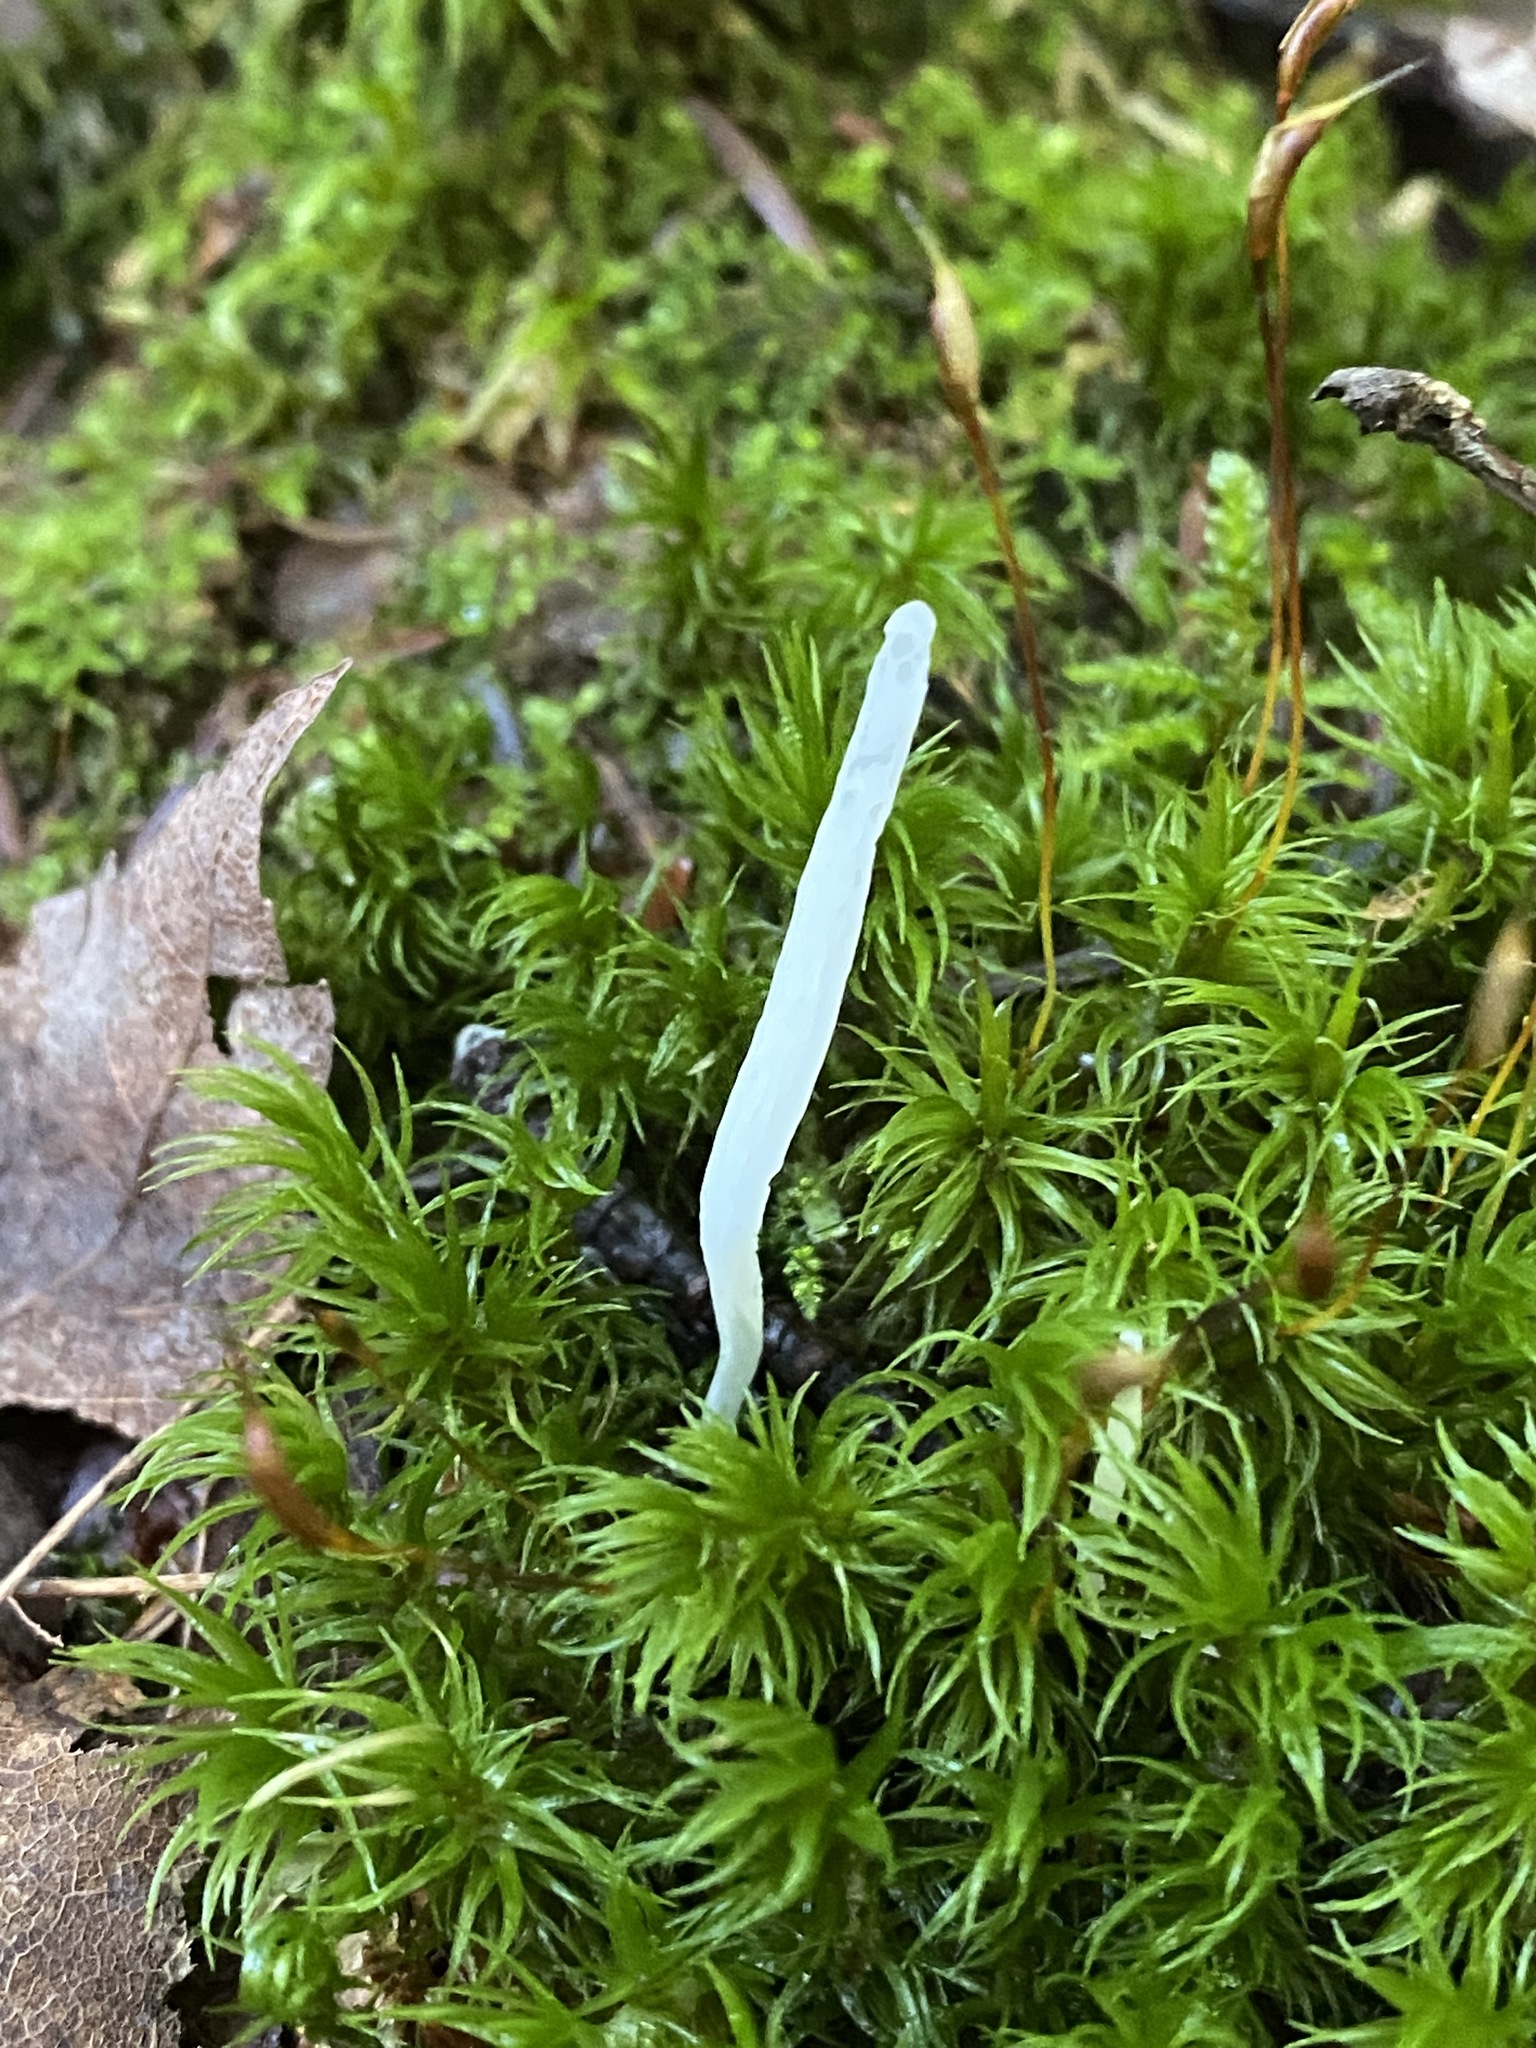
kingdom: Fungi
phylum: Basidiomycota
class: Agaricomycetes
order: Agaricales
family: Clavariaceae
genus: Clavaria
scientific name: Clavaria fragilis
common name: White spindles
